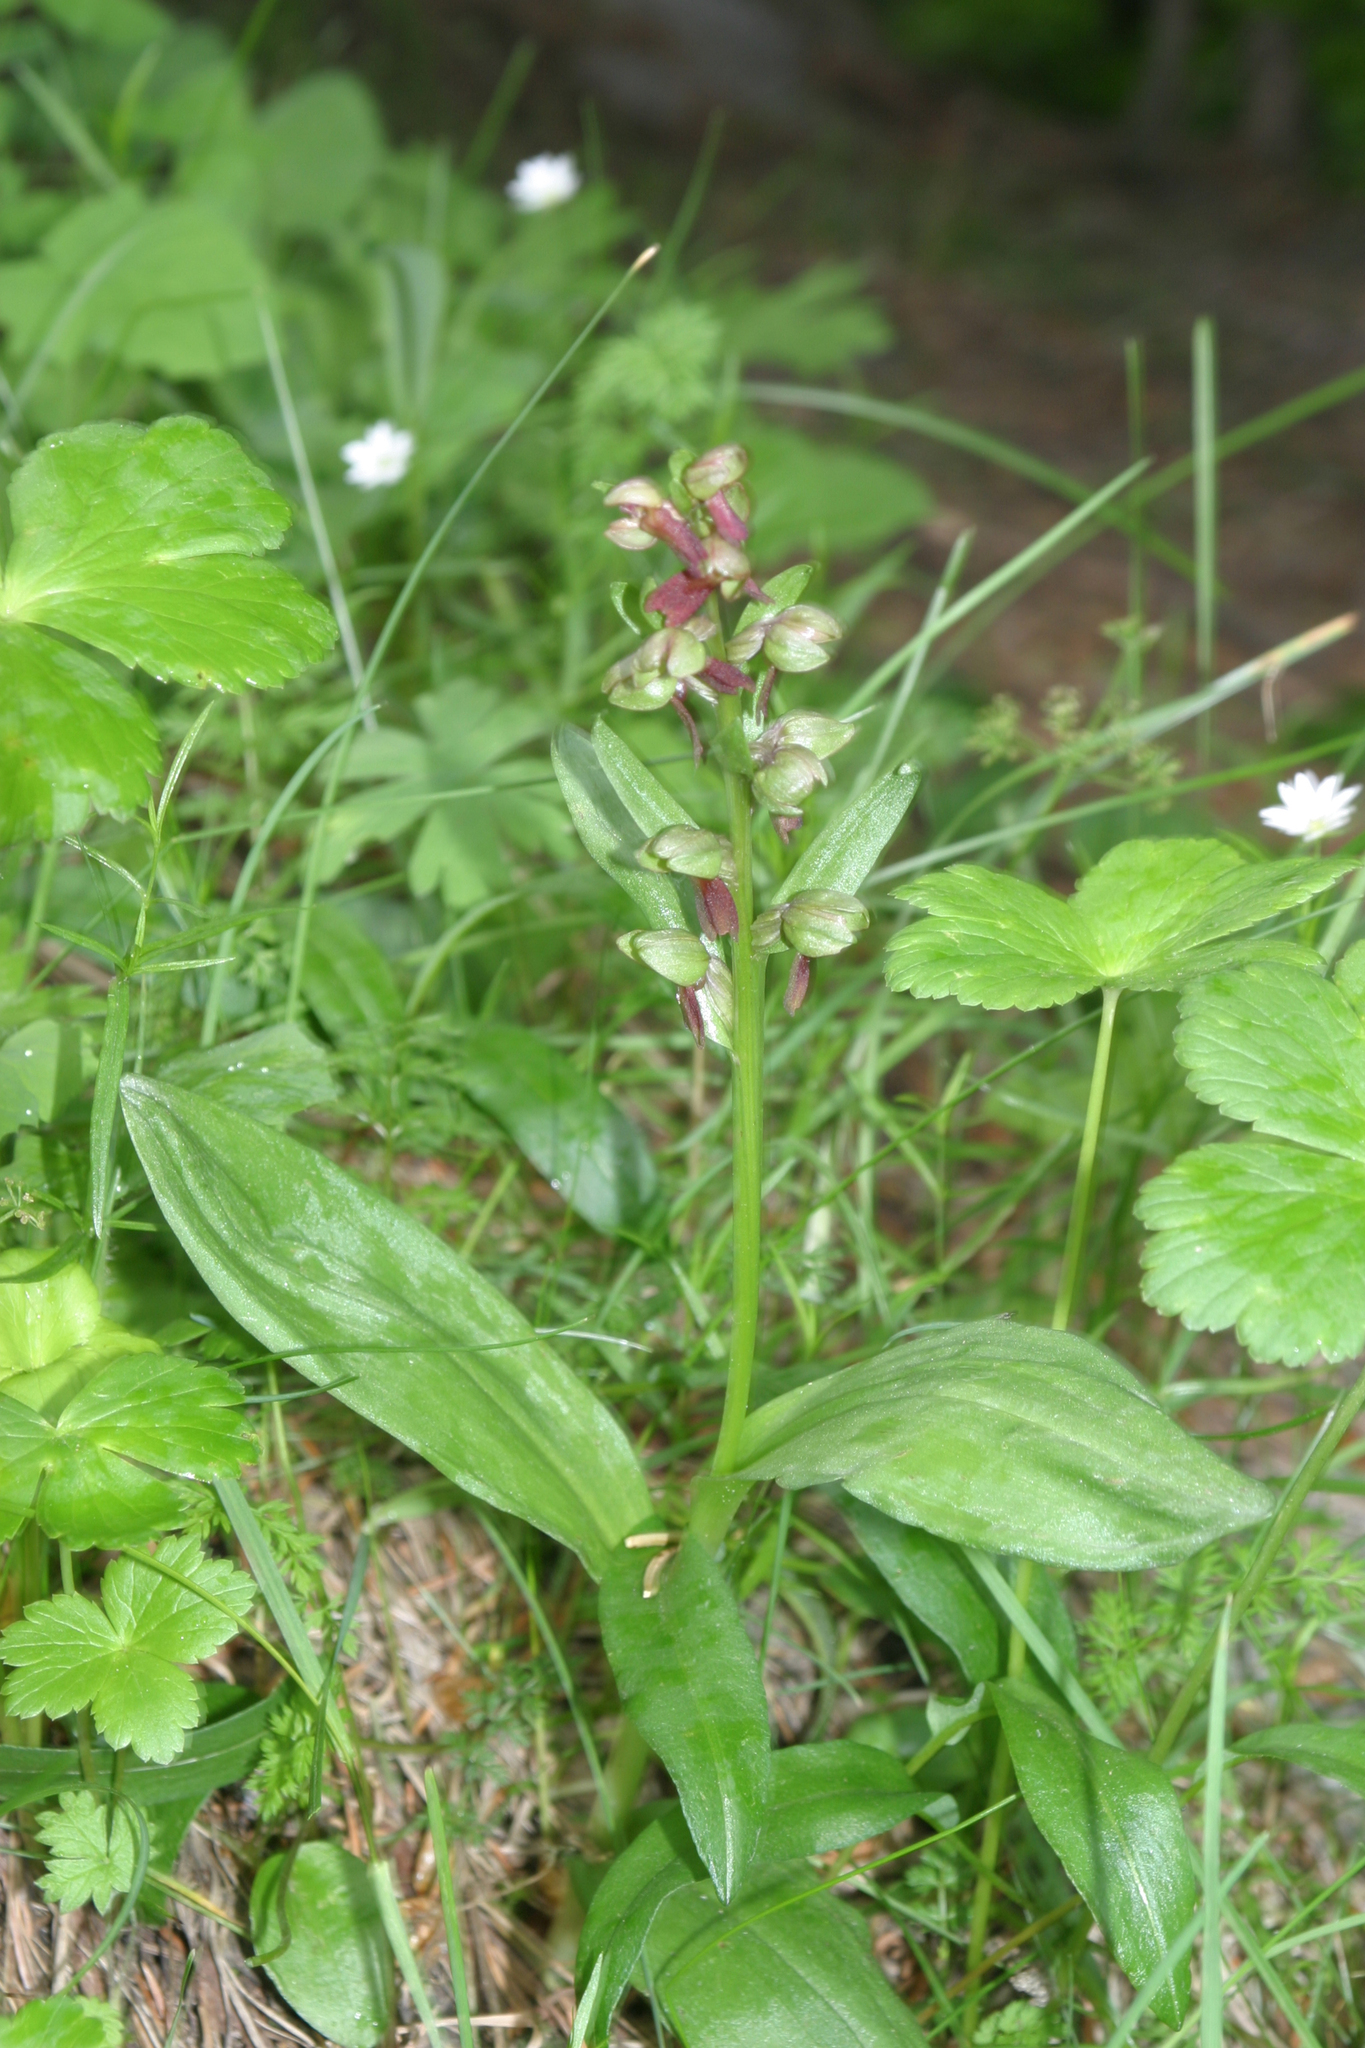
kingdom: Plantae
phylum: Tracheophyta
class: Liliopsida
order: Asparagales
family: Orchidaceae
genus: Dactylorhiza
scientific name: Dactylorhiza viridis
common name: Longbract frog orchid
